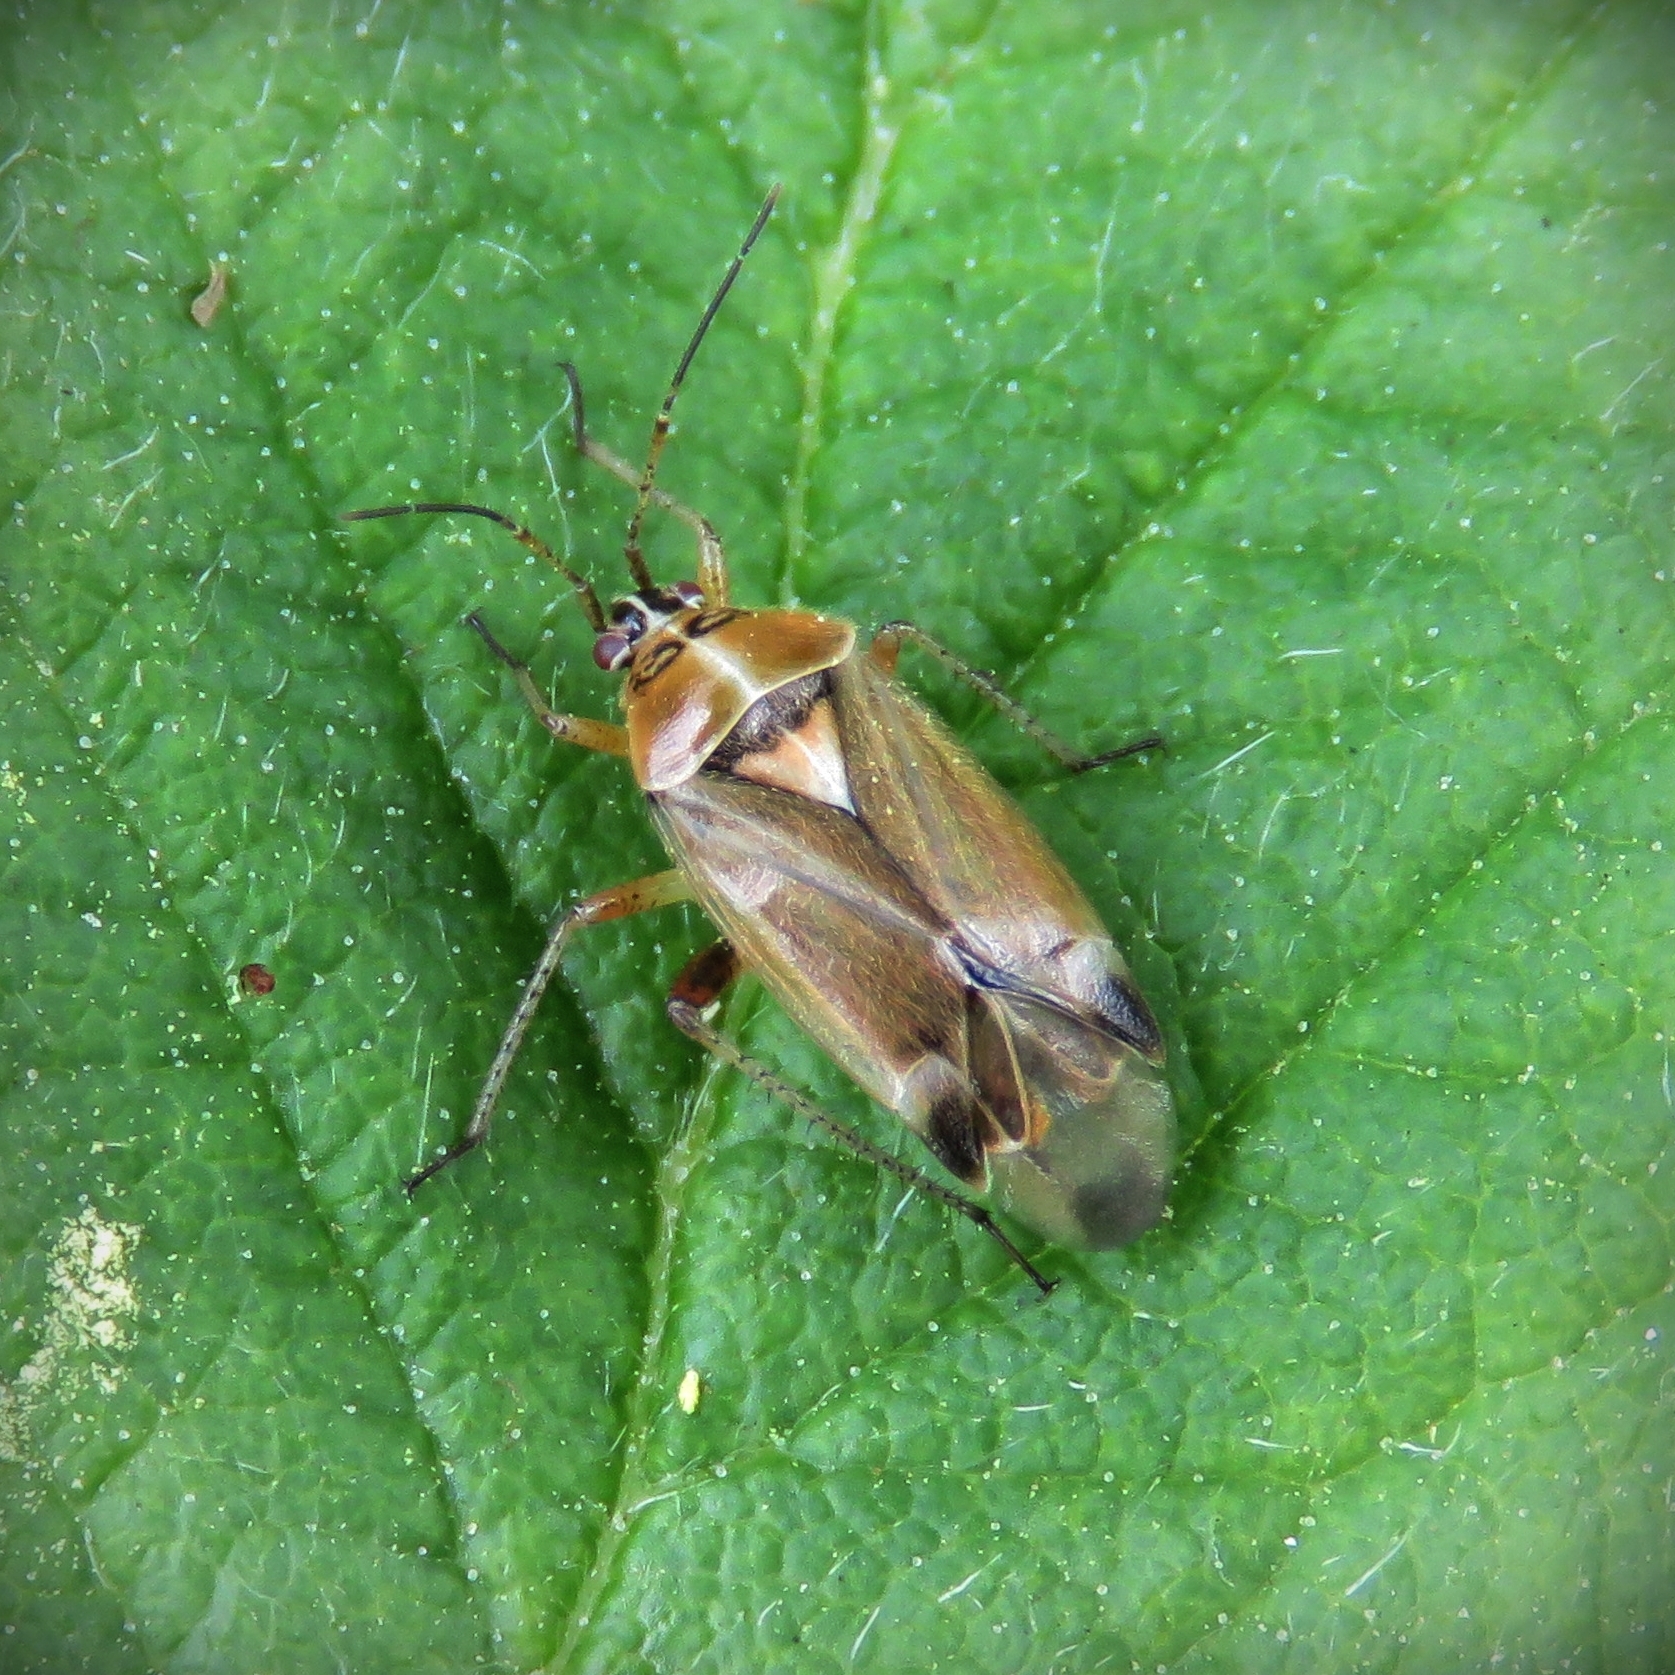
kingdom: Animalia
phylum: Arthropoda
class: Insecta
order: Hemiptera
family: Miridae
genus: Harpocera
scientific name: Harpocera thoracica
